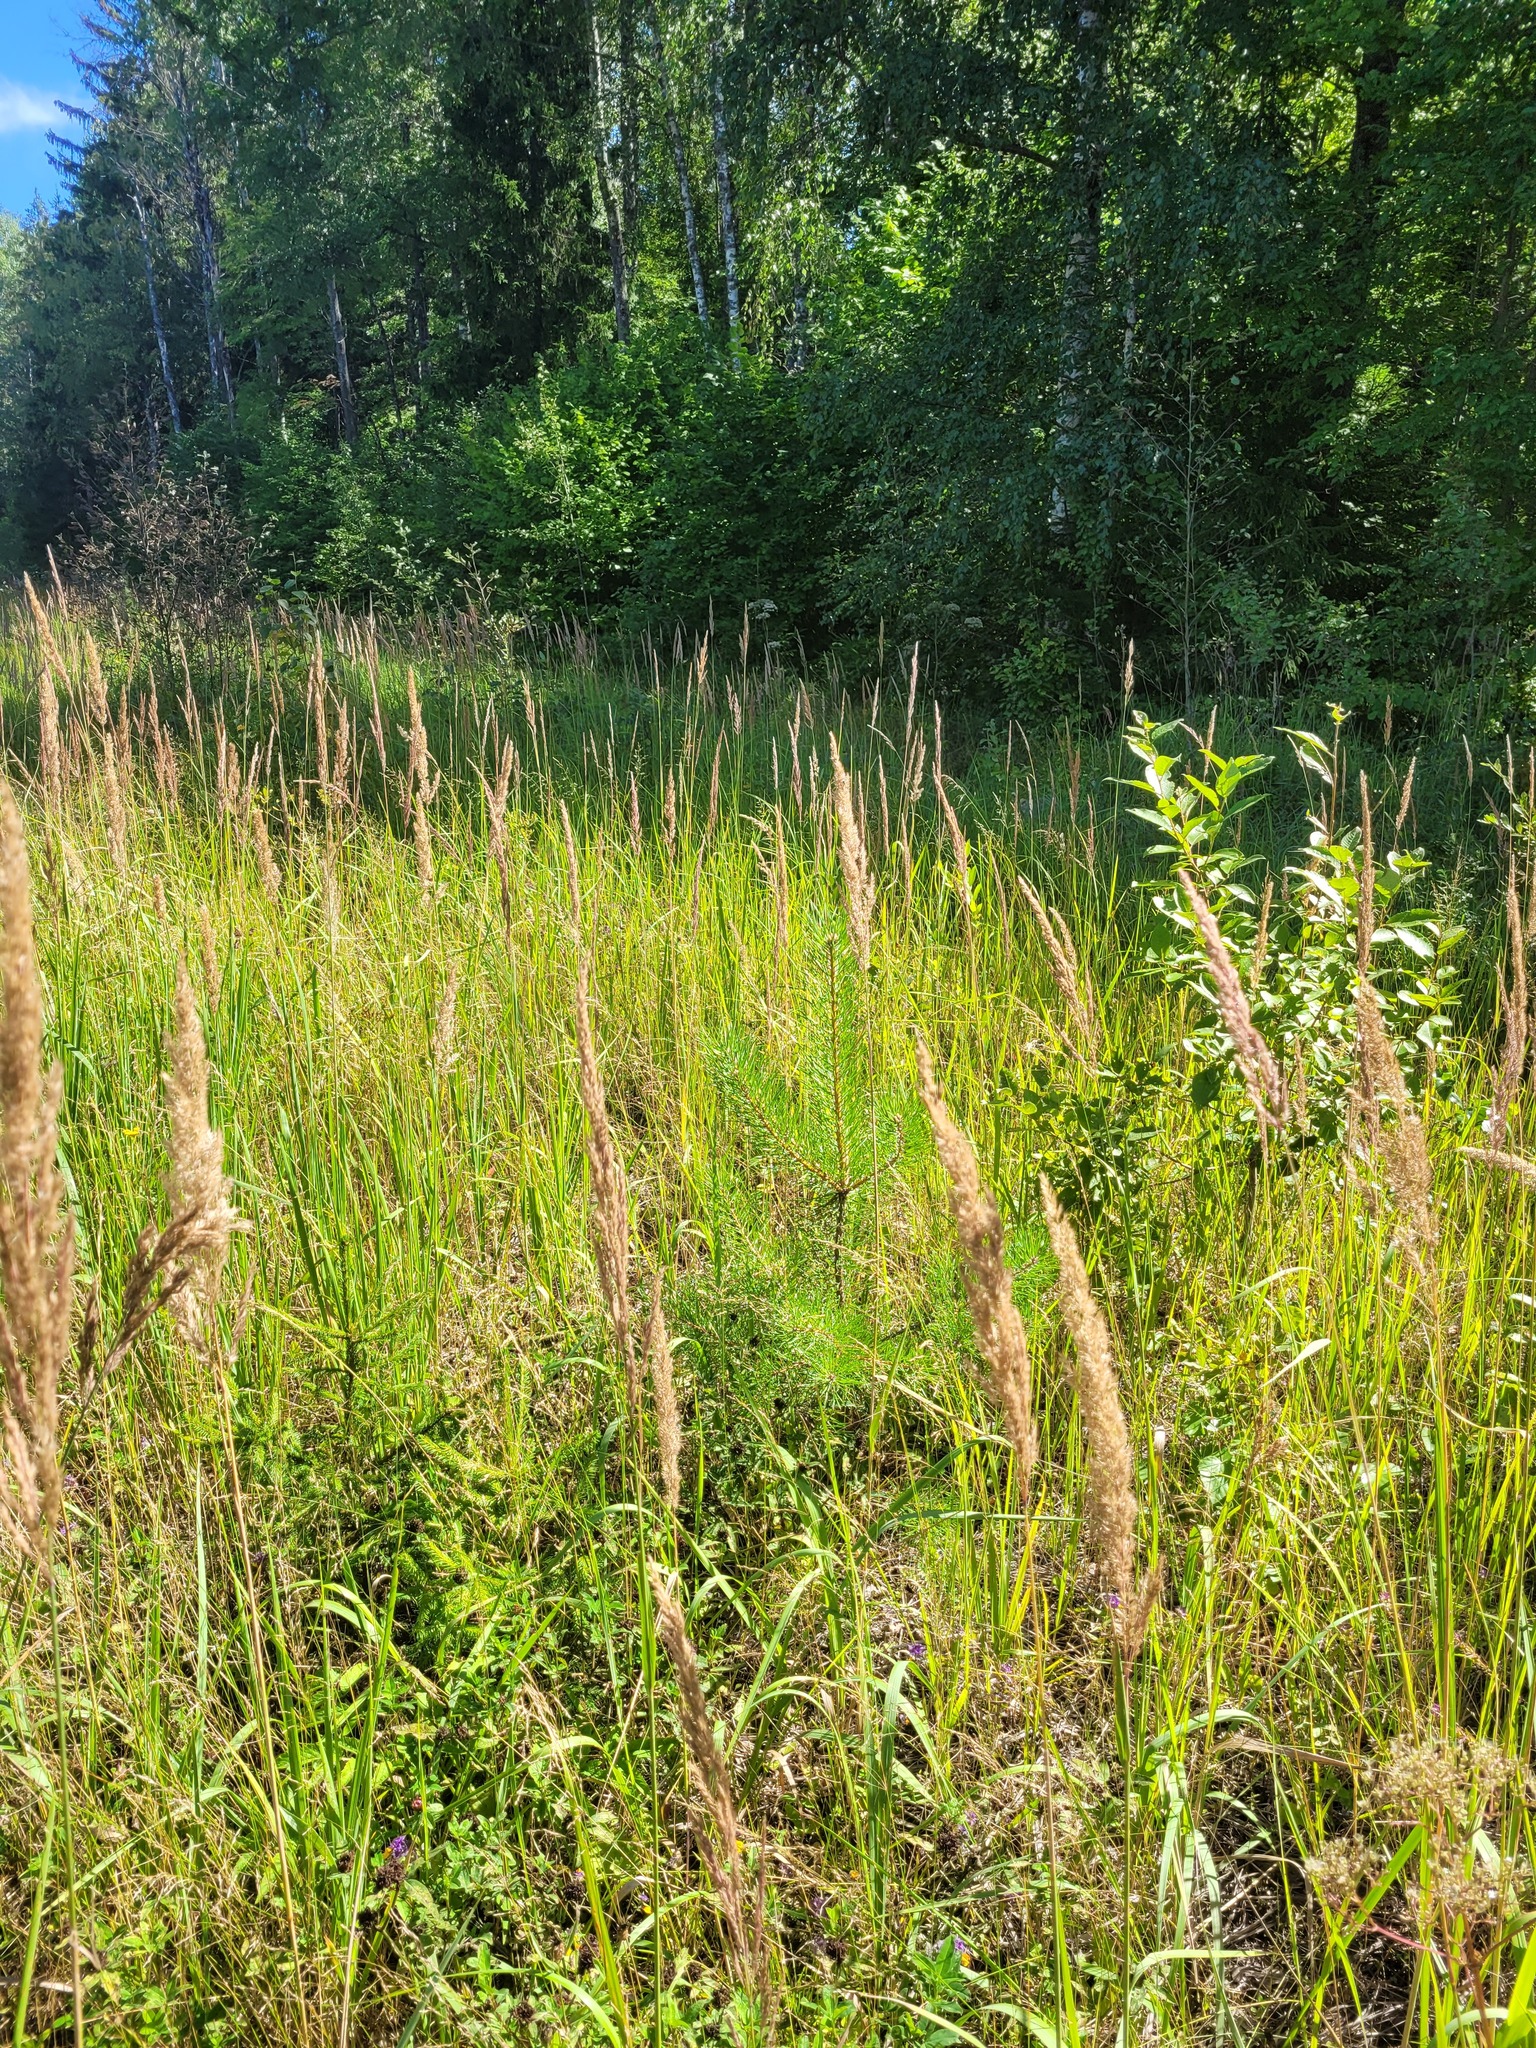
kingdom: Plantae
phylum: Tracheophyta
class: Pinopsida
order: Pinales
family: Pinaceae
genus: Pinus
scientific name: Pinus sylvestris
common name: Scots pine
